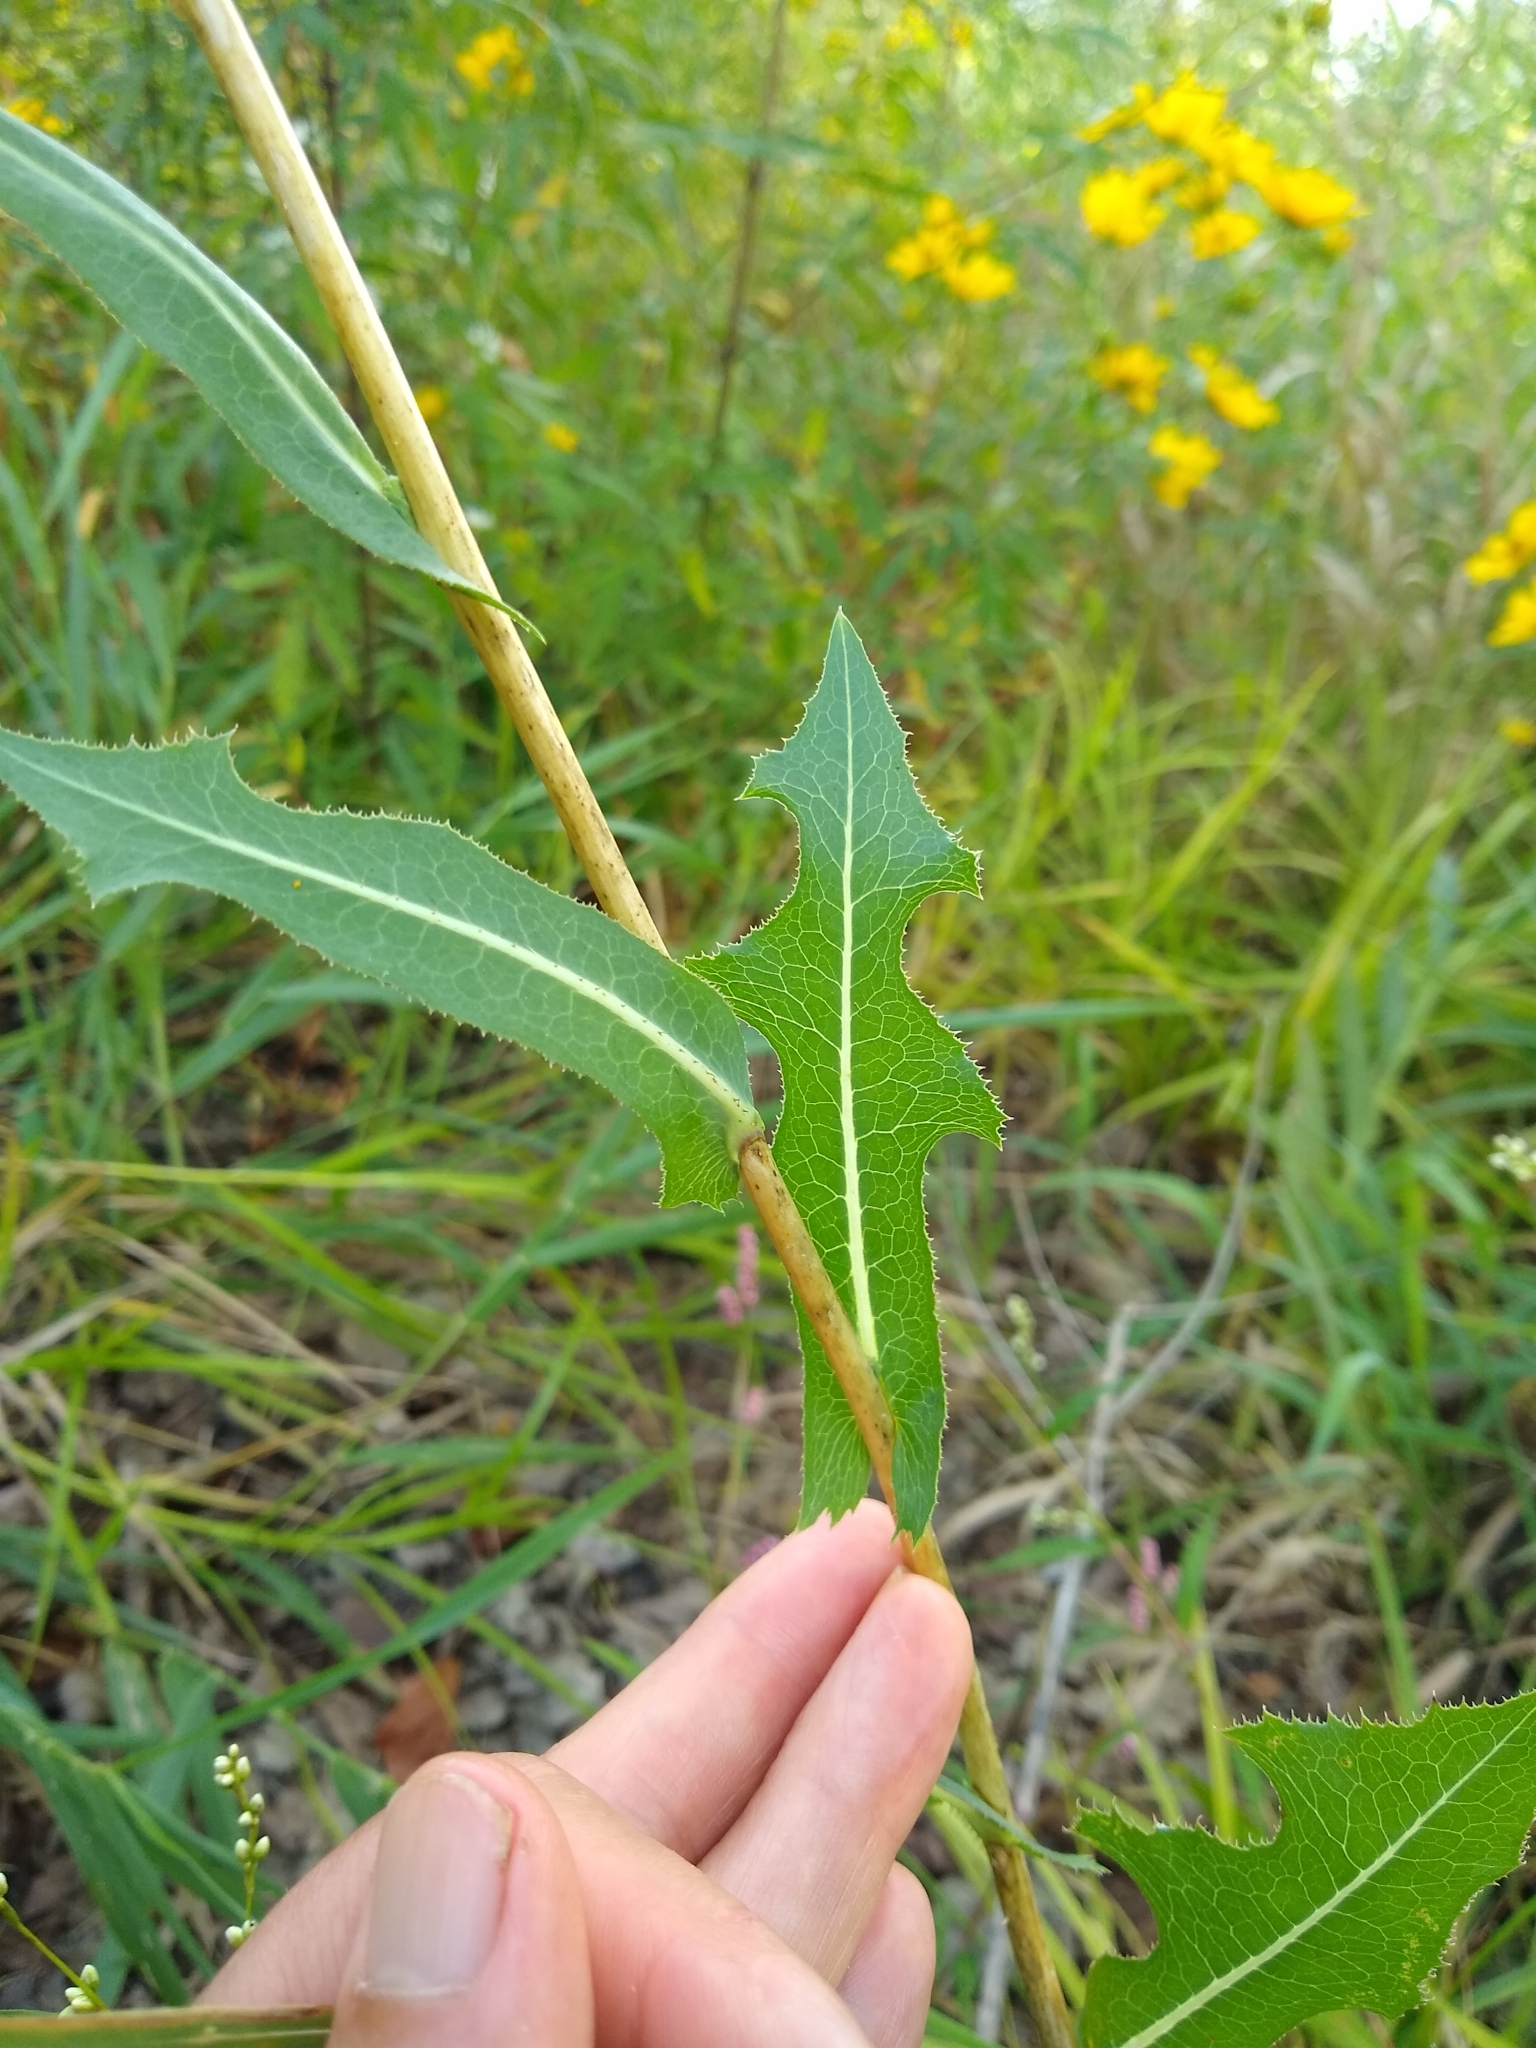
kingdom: Plantae
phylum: Tracheophyta
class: Magnoliopsida
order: Asterales
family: Asteraceae
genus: Lactuca
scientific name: Lactuca serriola
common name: Prickly lettuce
